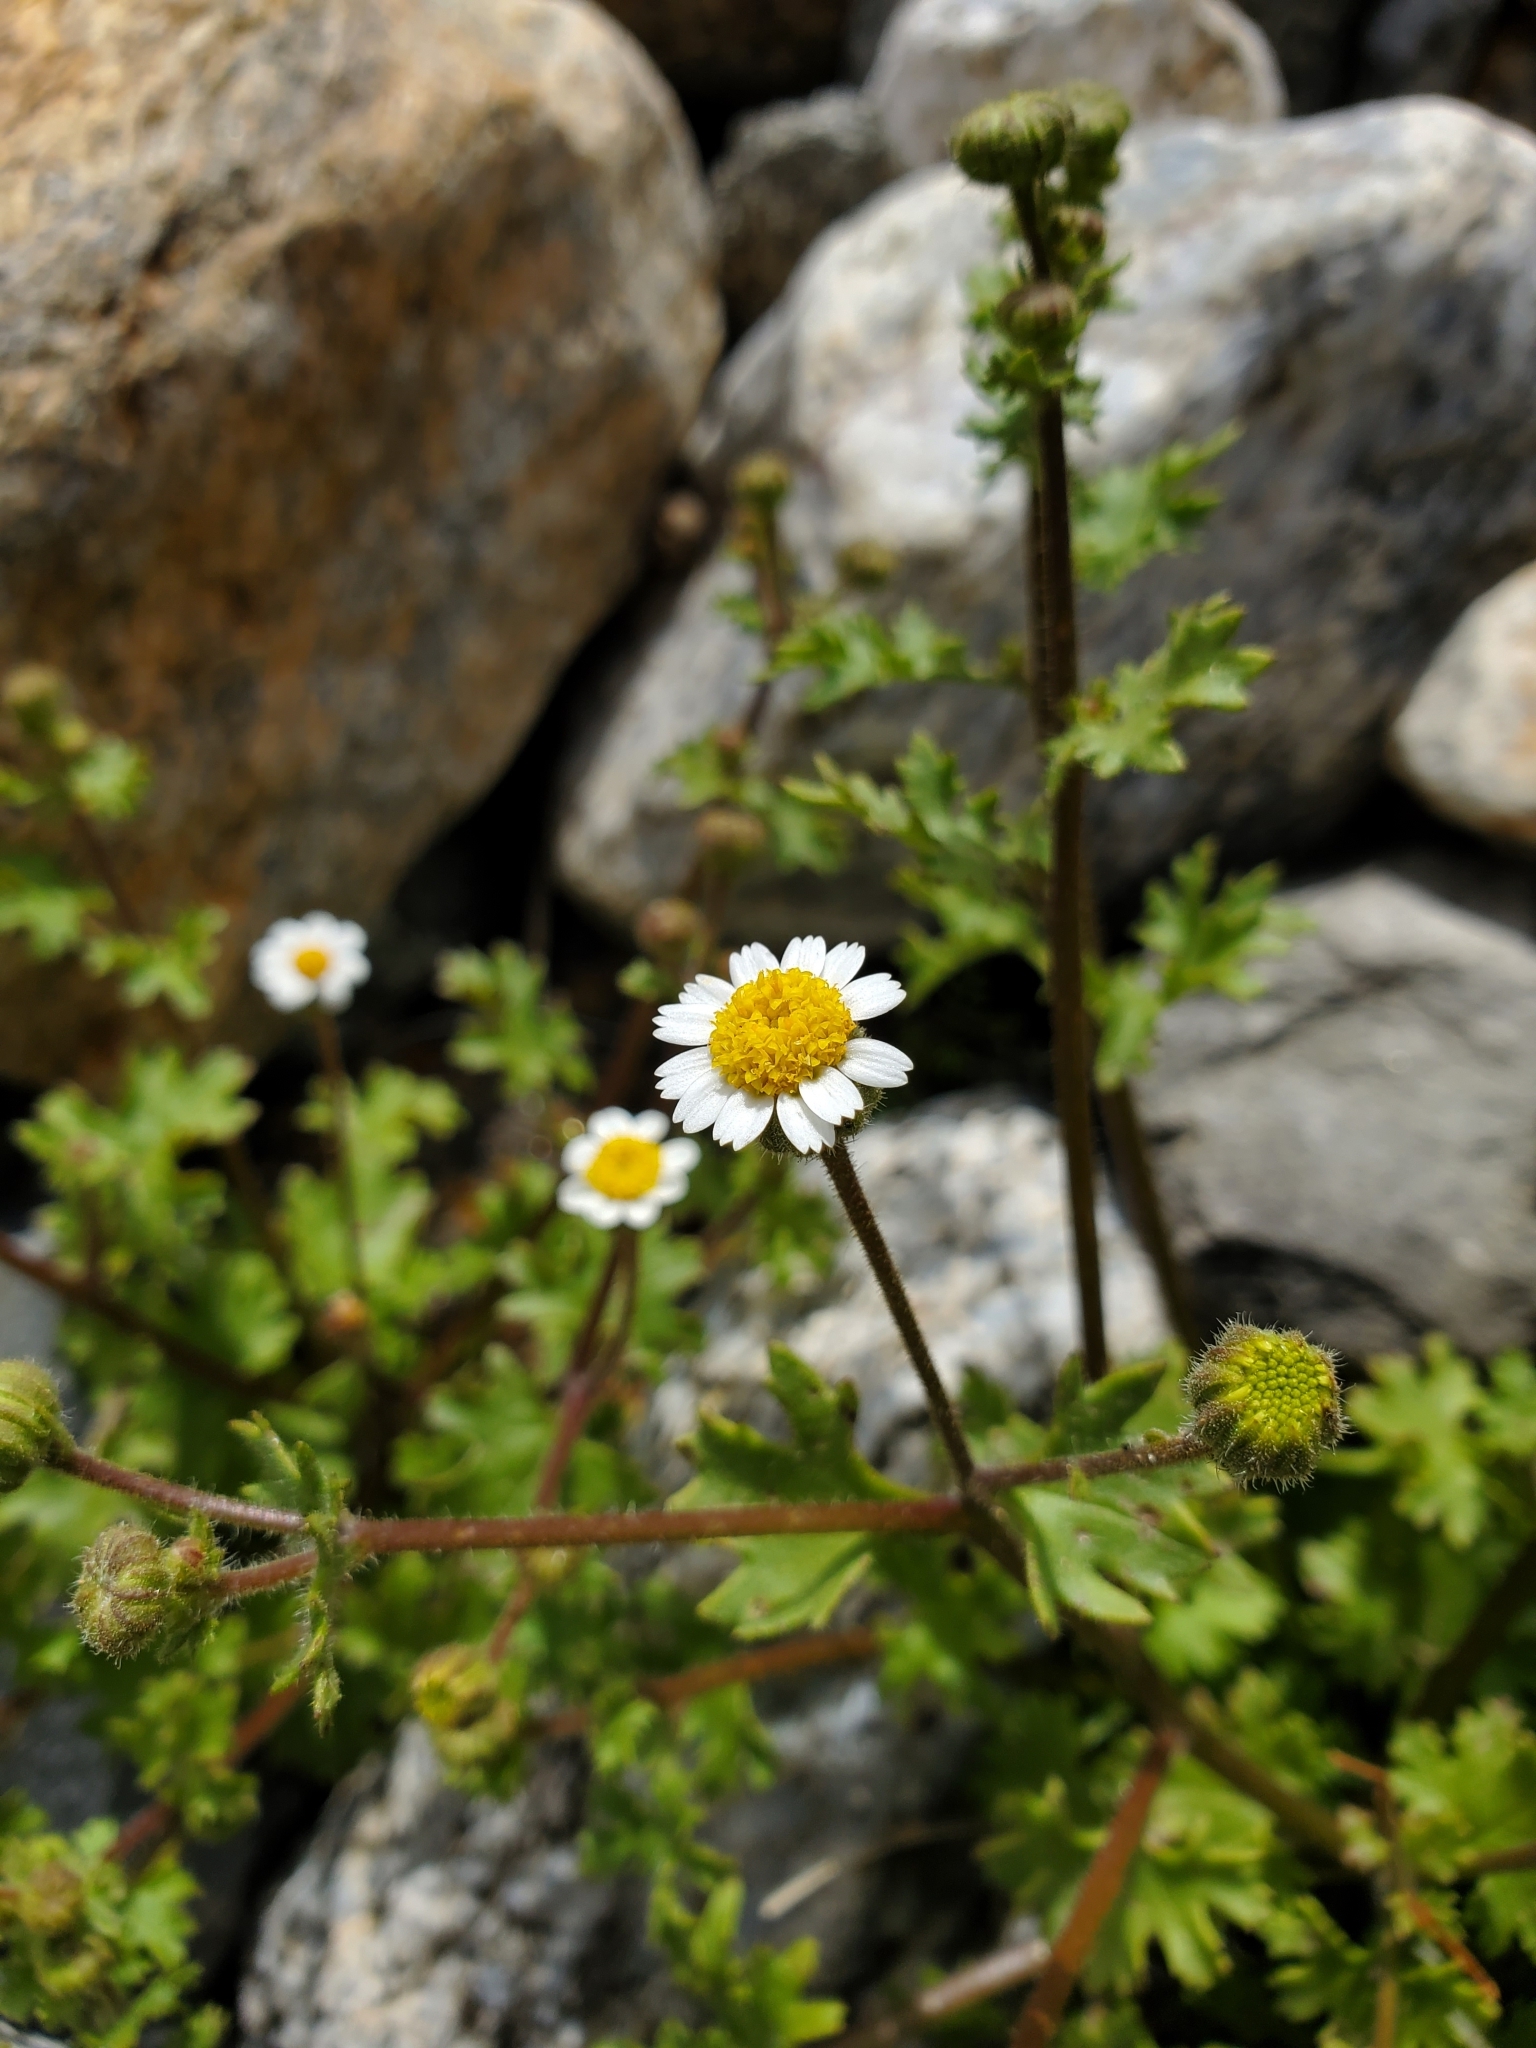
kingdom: Plantae
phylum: Tracheophyta
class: Magnoliopsida
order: Asterales
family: Asteraceae
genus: Laphamia
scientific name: Laphamia emoryi
